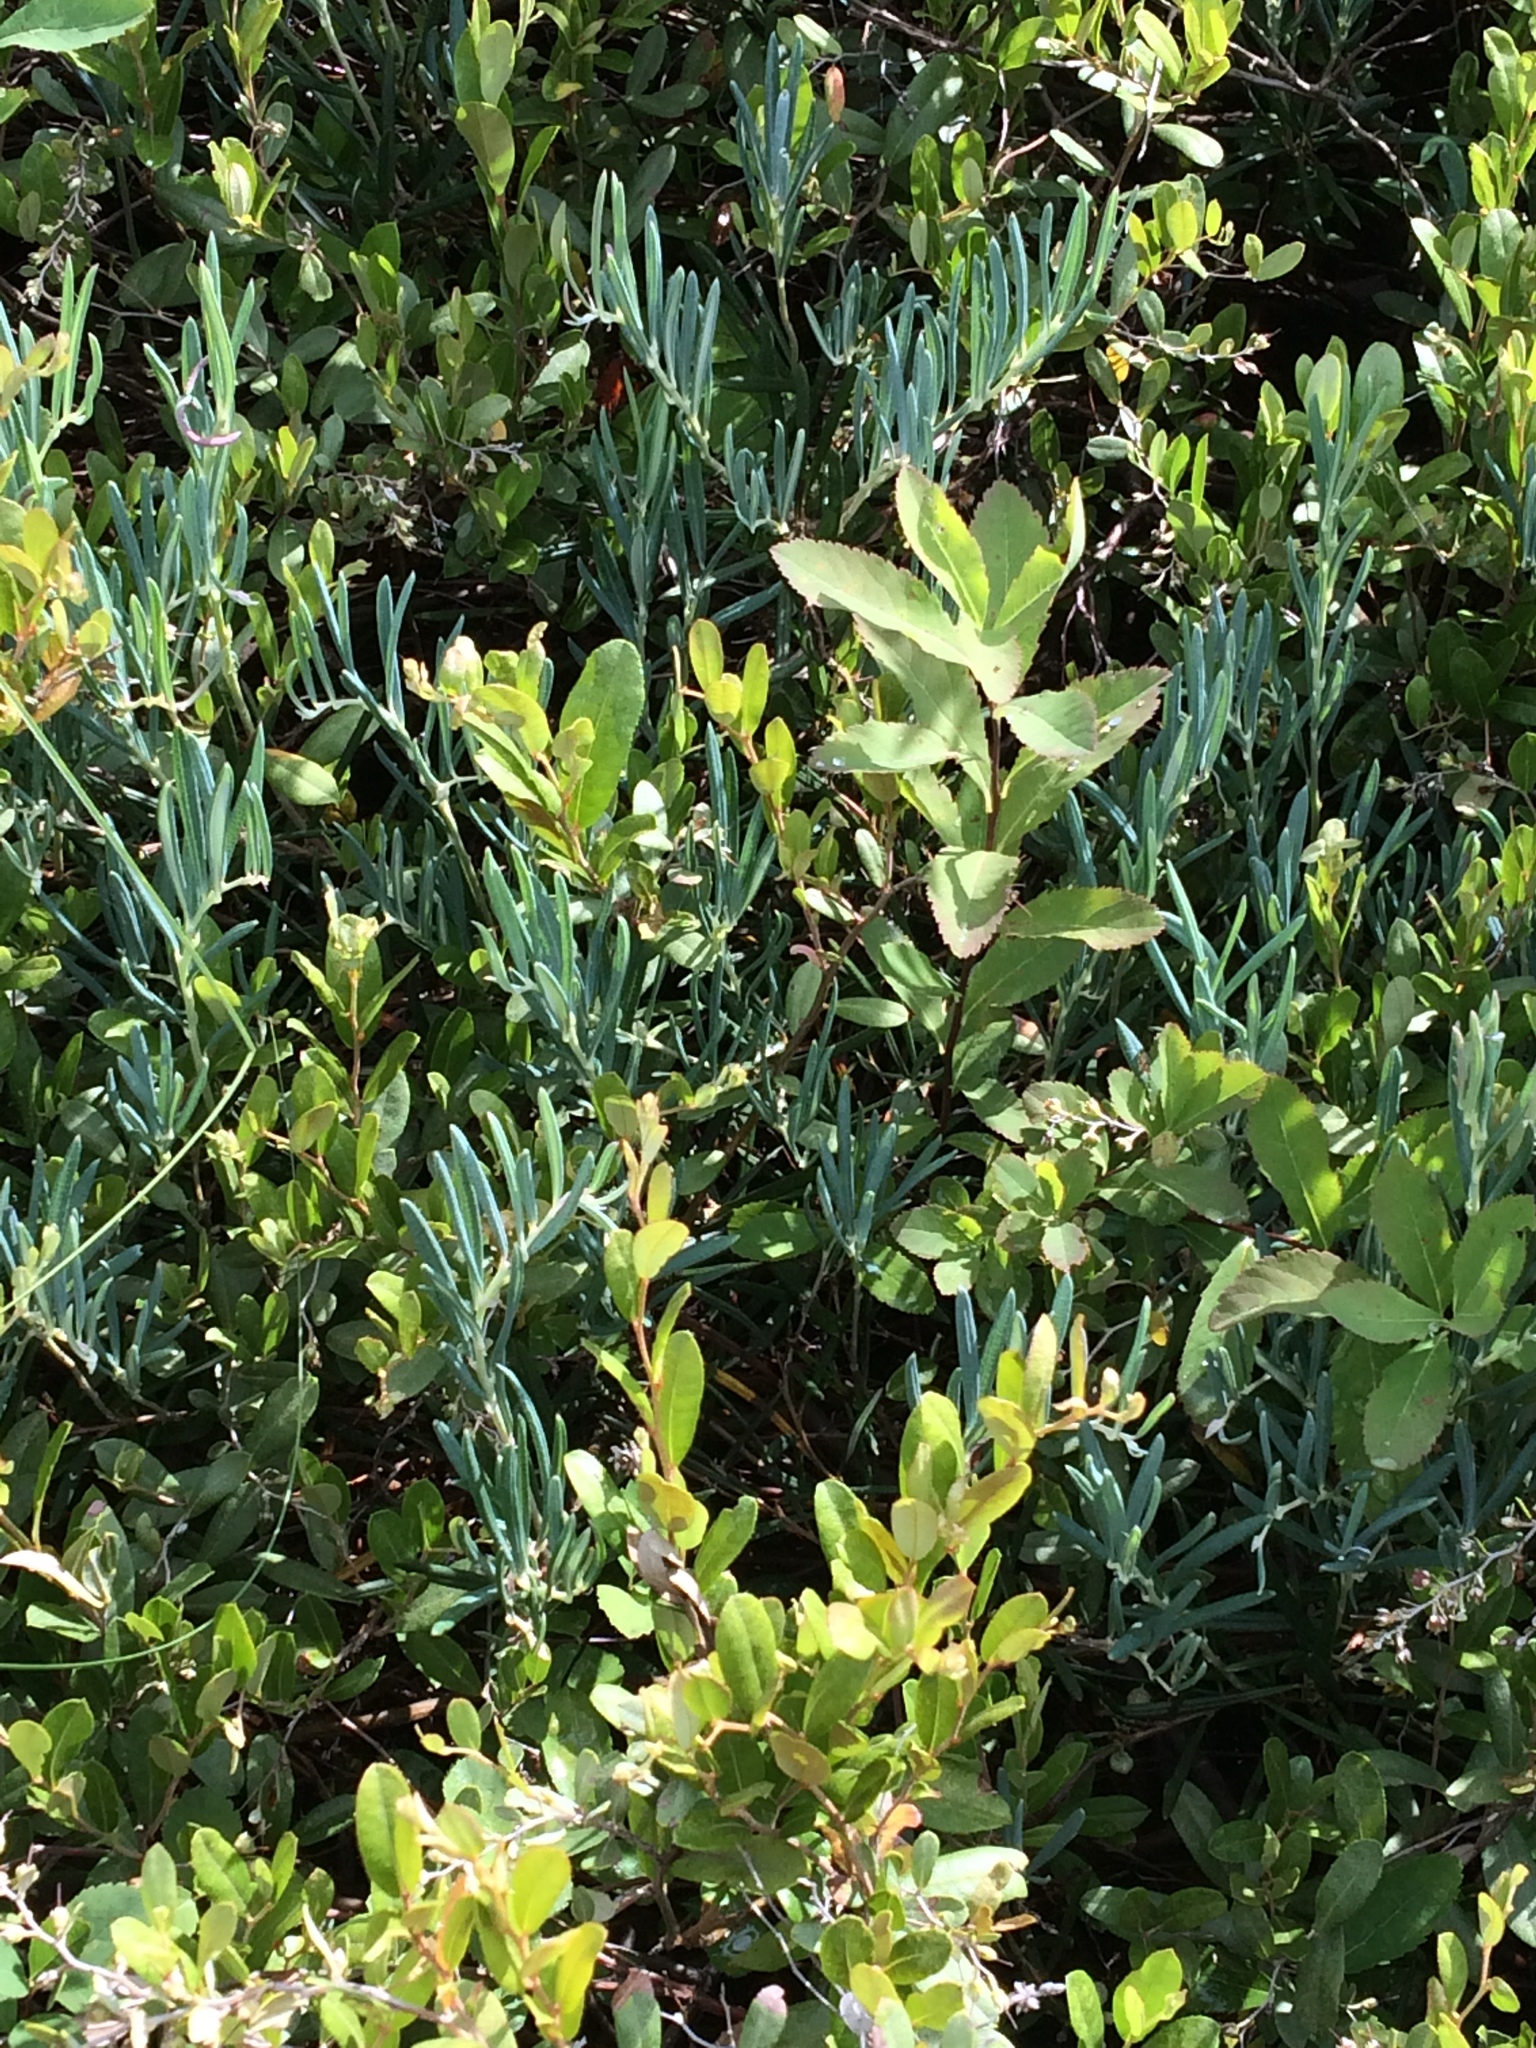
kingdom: Plantae
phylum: Tracheophyta
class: Magnoliopsida
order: Ericales
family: Ericaceae
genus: Andromeda
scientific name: Andromeda polifolia
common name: Bog-rosemary
